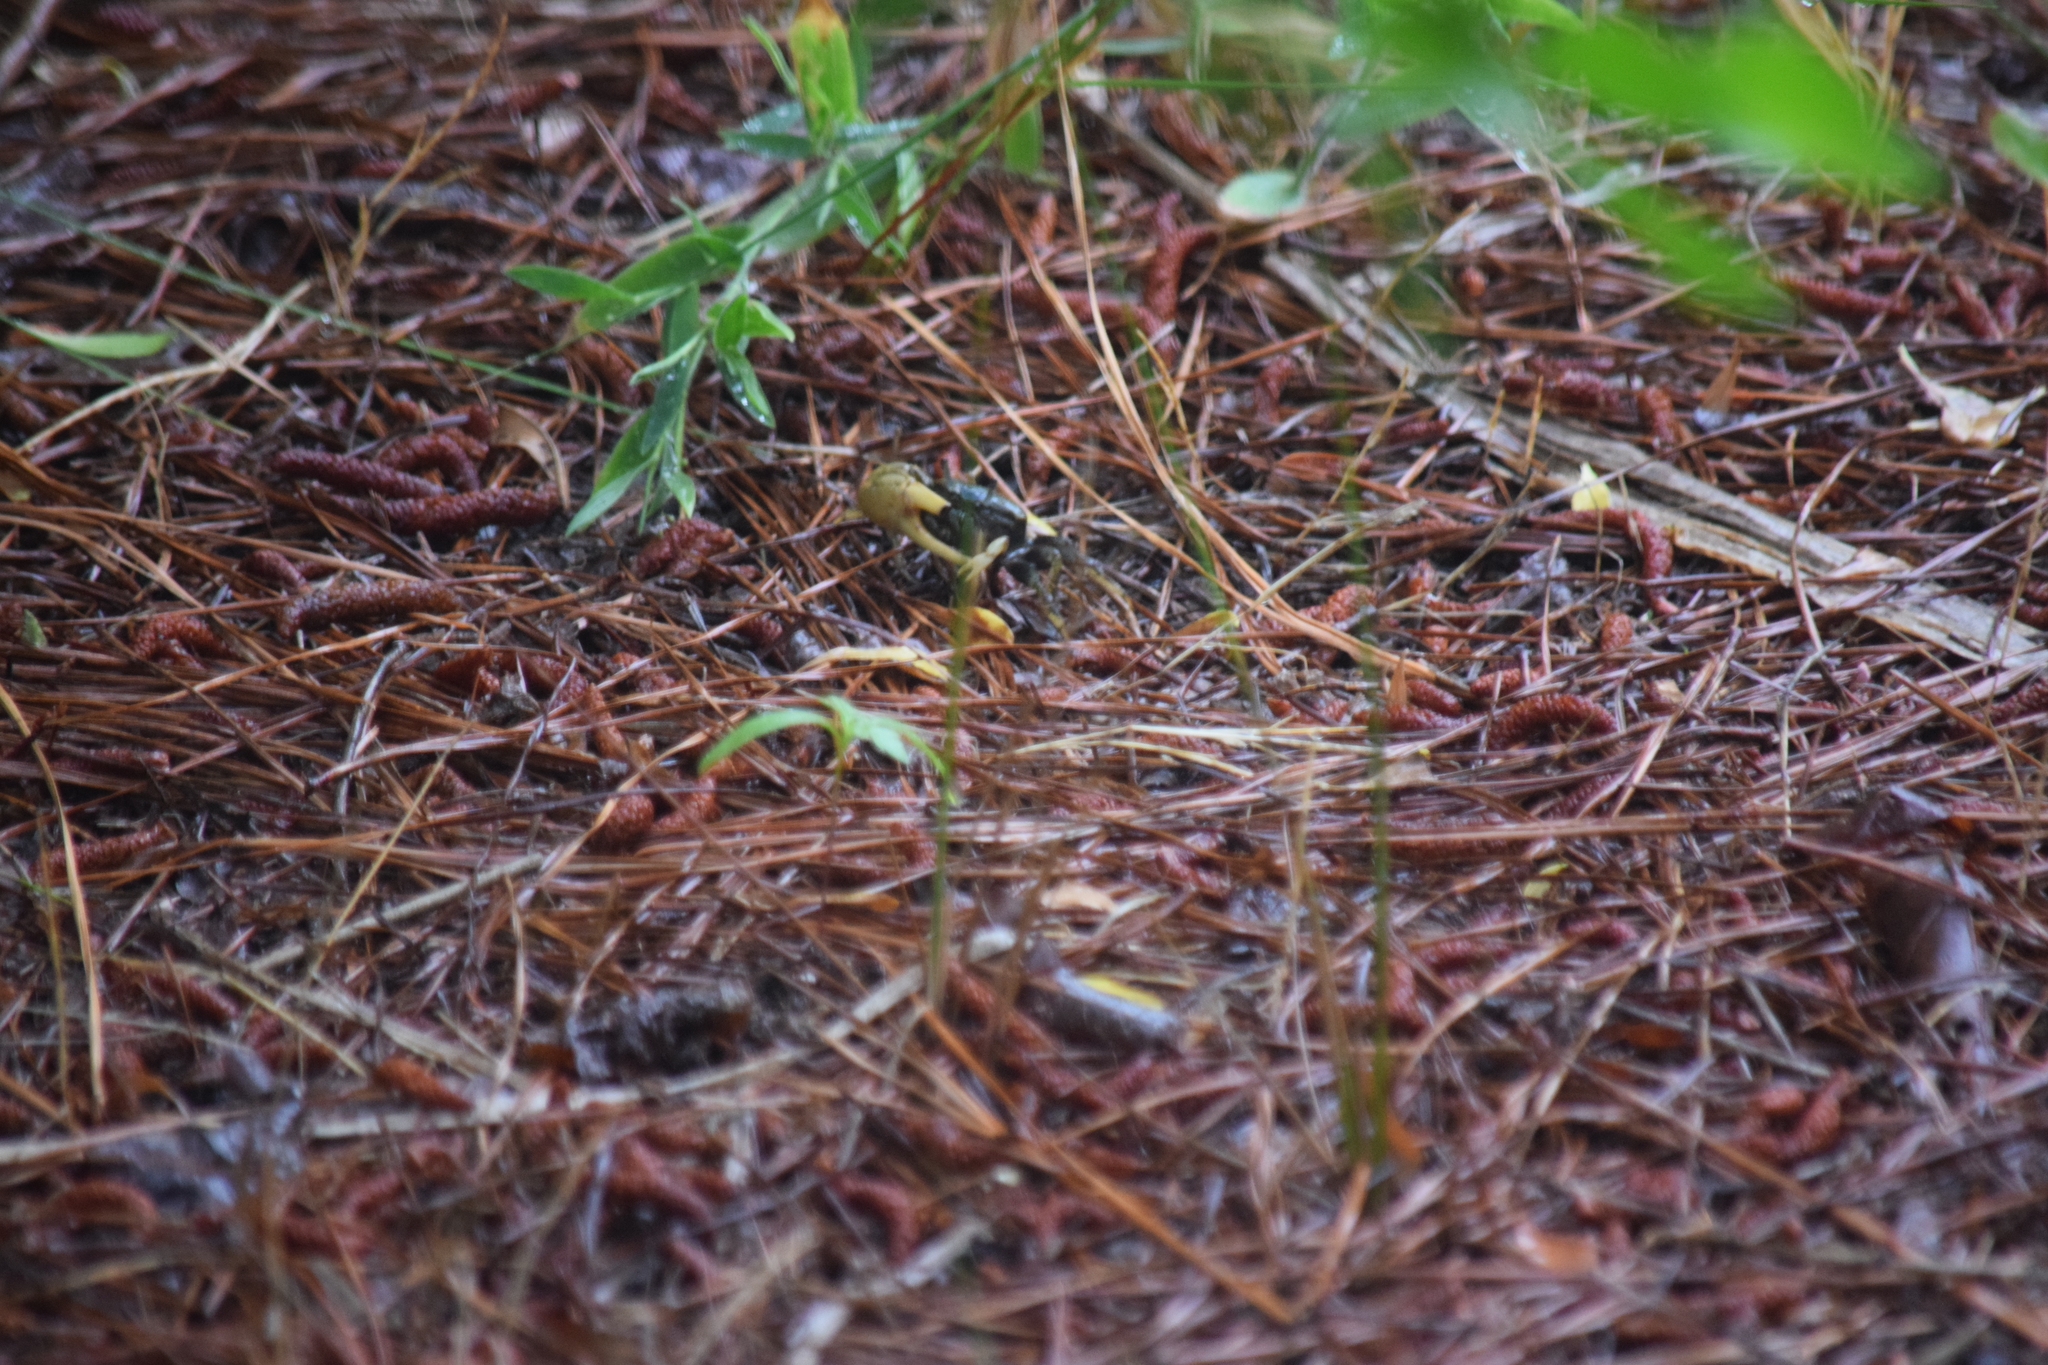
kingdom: Animalia
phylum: Arthropoda
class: Malacostraca
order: Decapoda
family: Ocypodidae
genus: Minuca
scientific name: Minuca pugnax
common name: Mud fiddler crab
